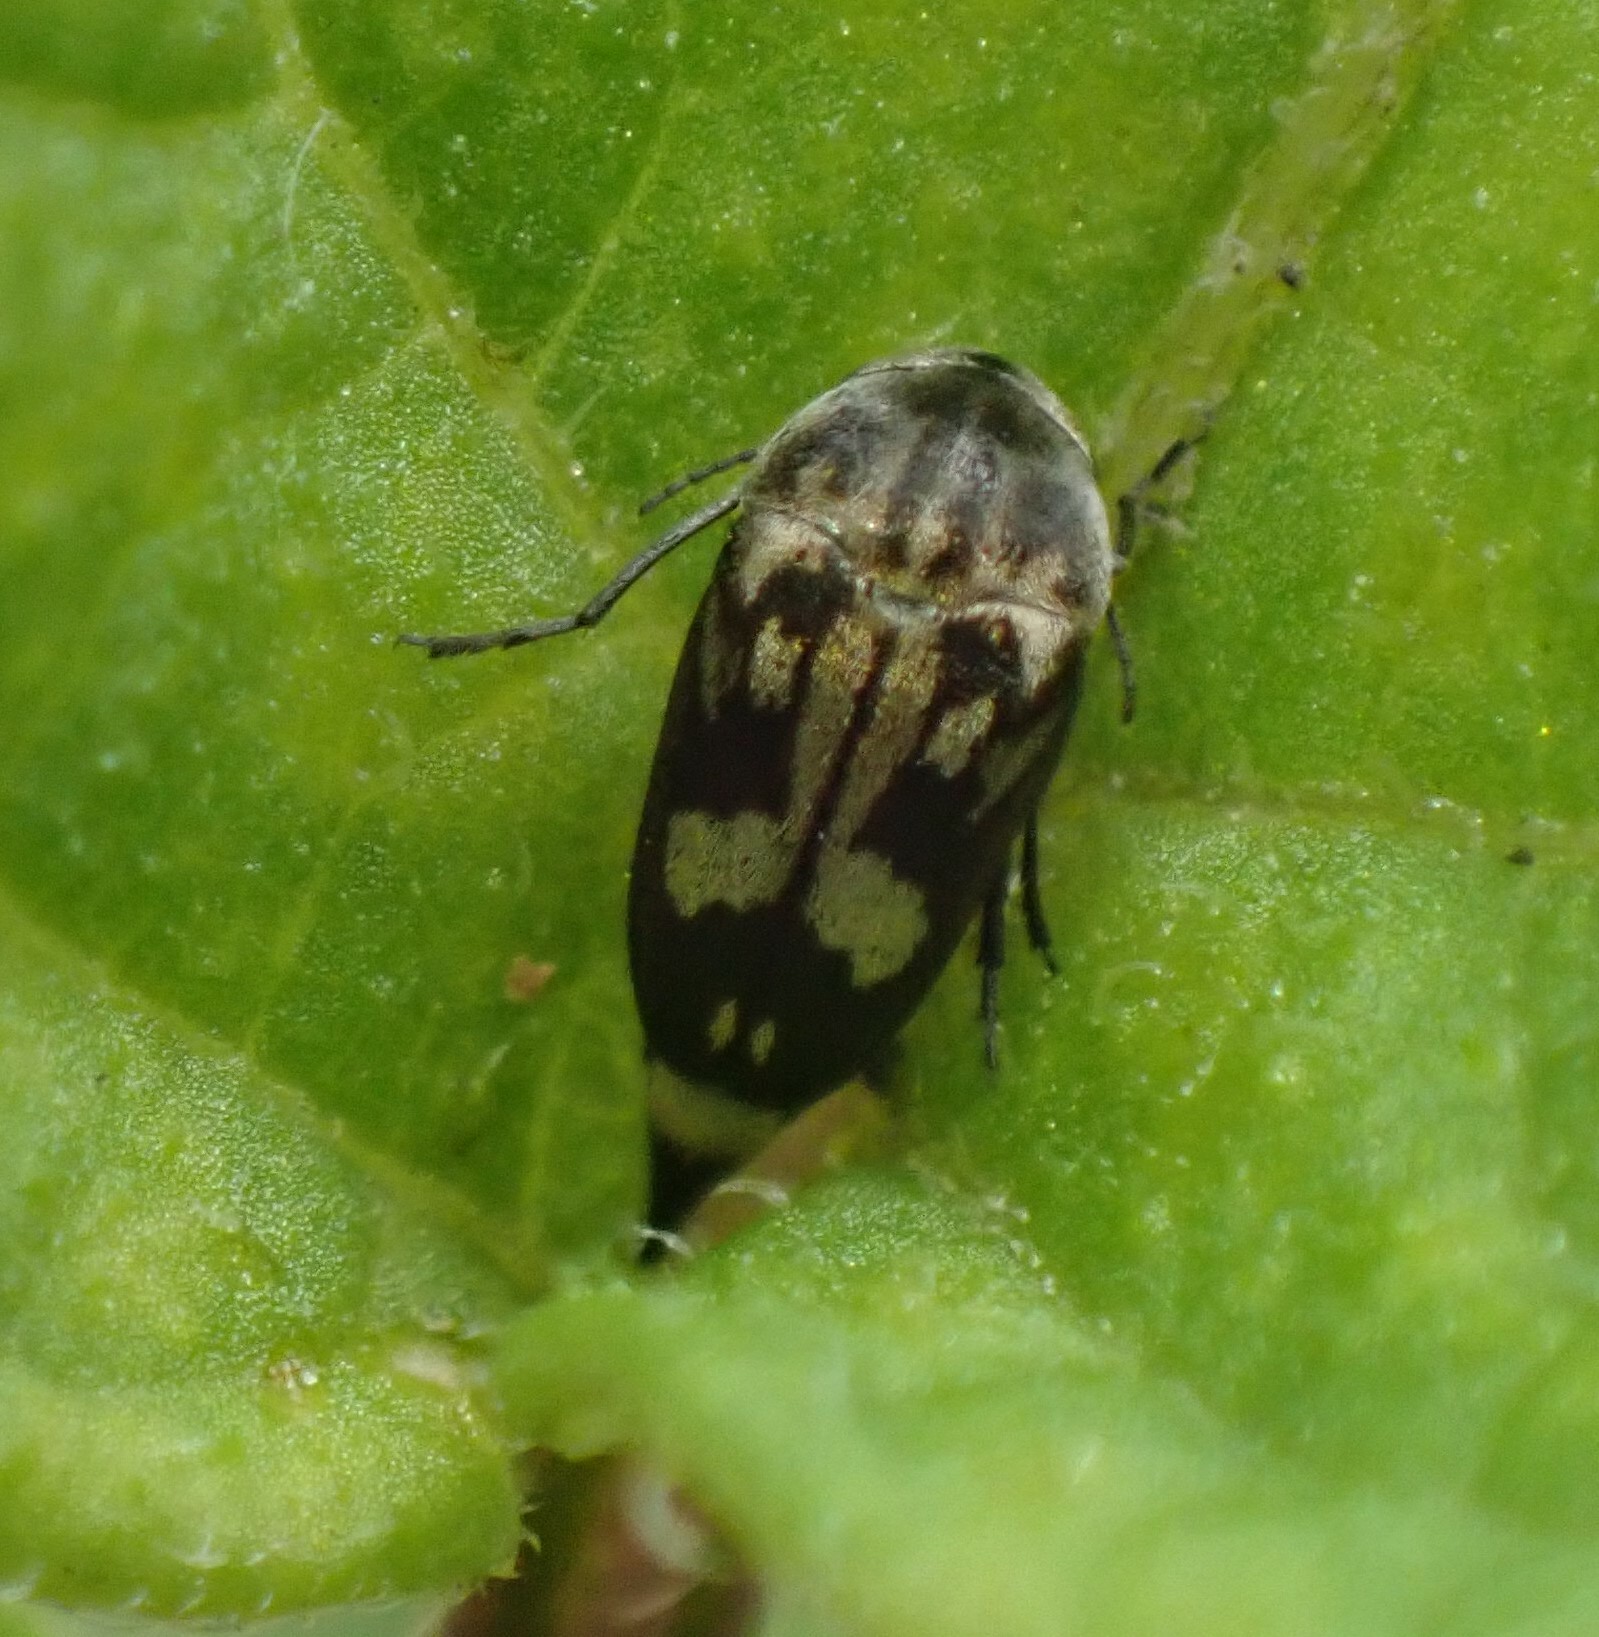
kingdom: Animalia
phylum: Arthropoda
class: Insecta
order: Coleoptera
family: Mordellidae
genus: Zeamordella
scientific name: Zeamordella monacha
